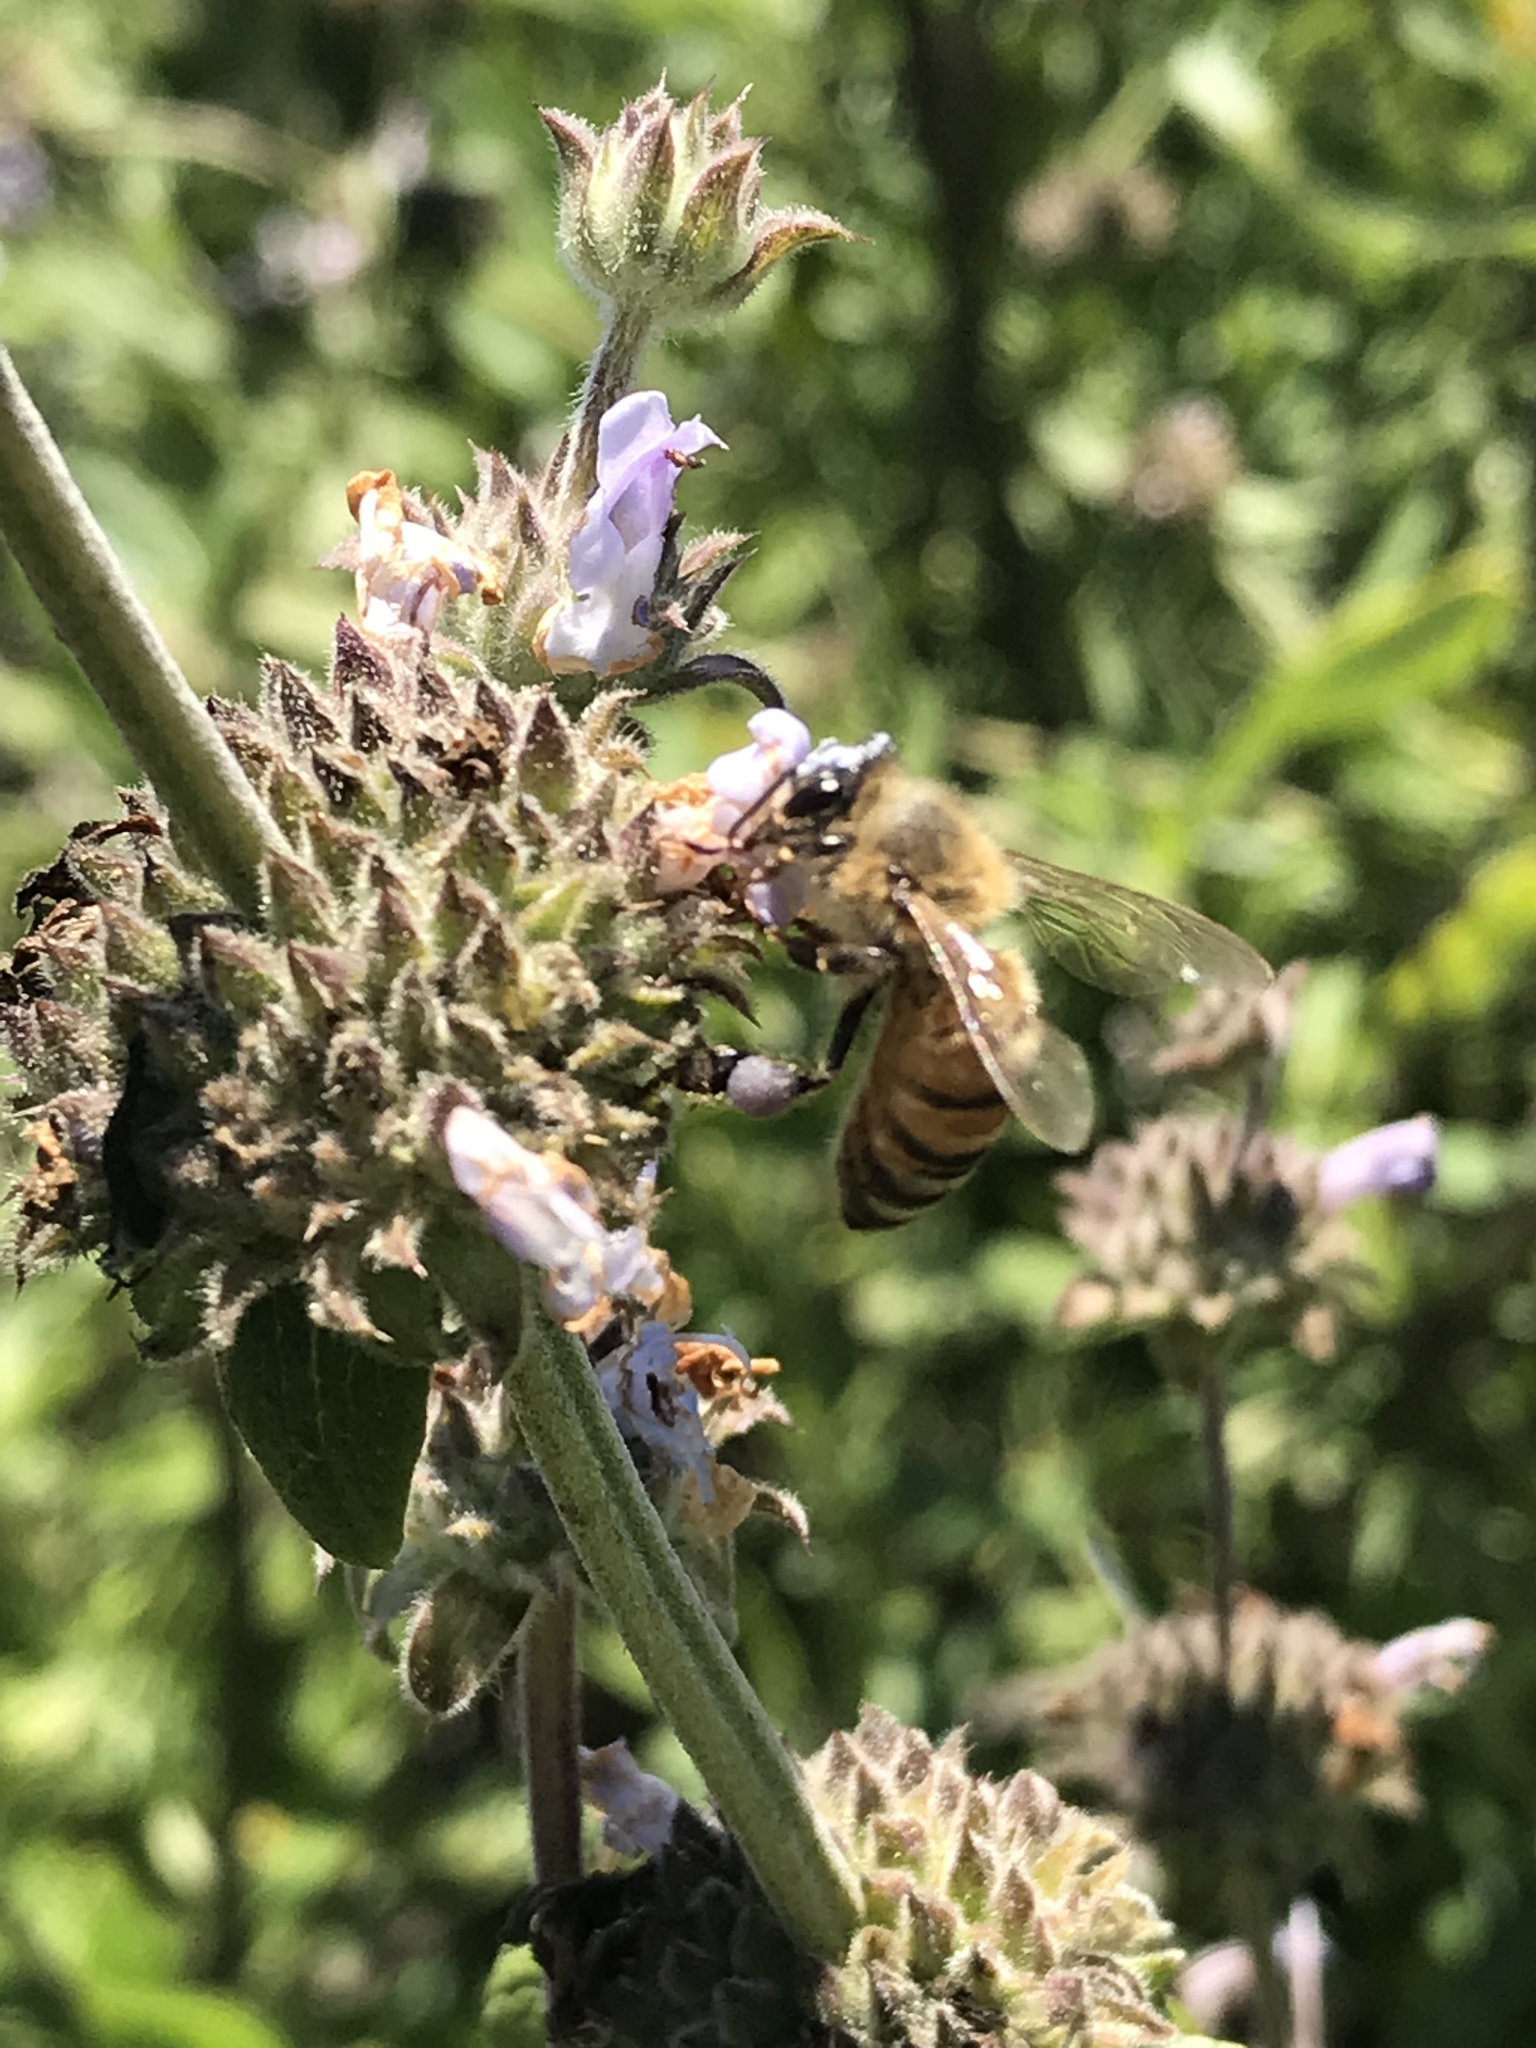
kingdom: Animalia
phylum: Arthropoda
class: Insecta
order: Hymenoptera
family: Apidae
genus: Apis
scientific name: Apis mellifera
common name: Honey bee
